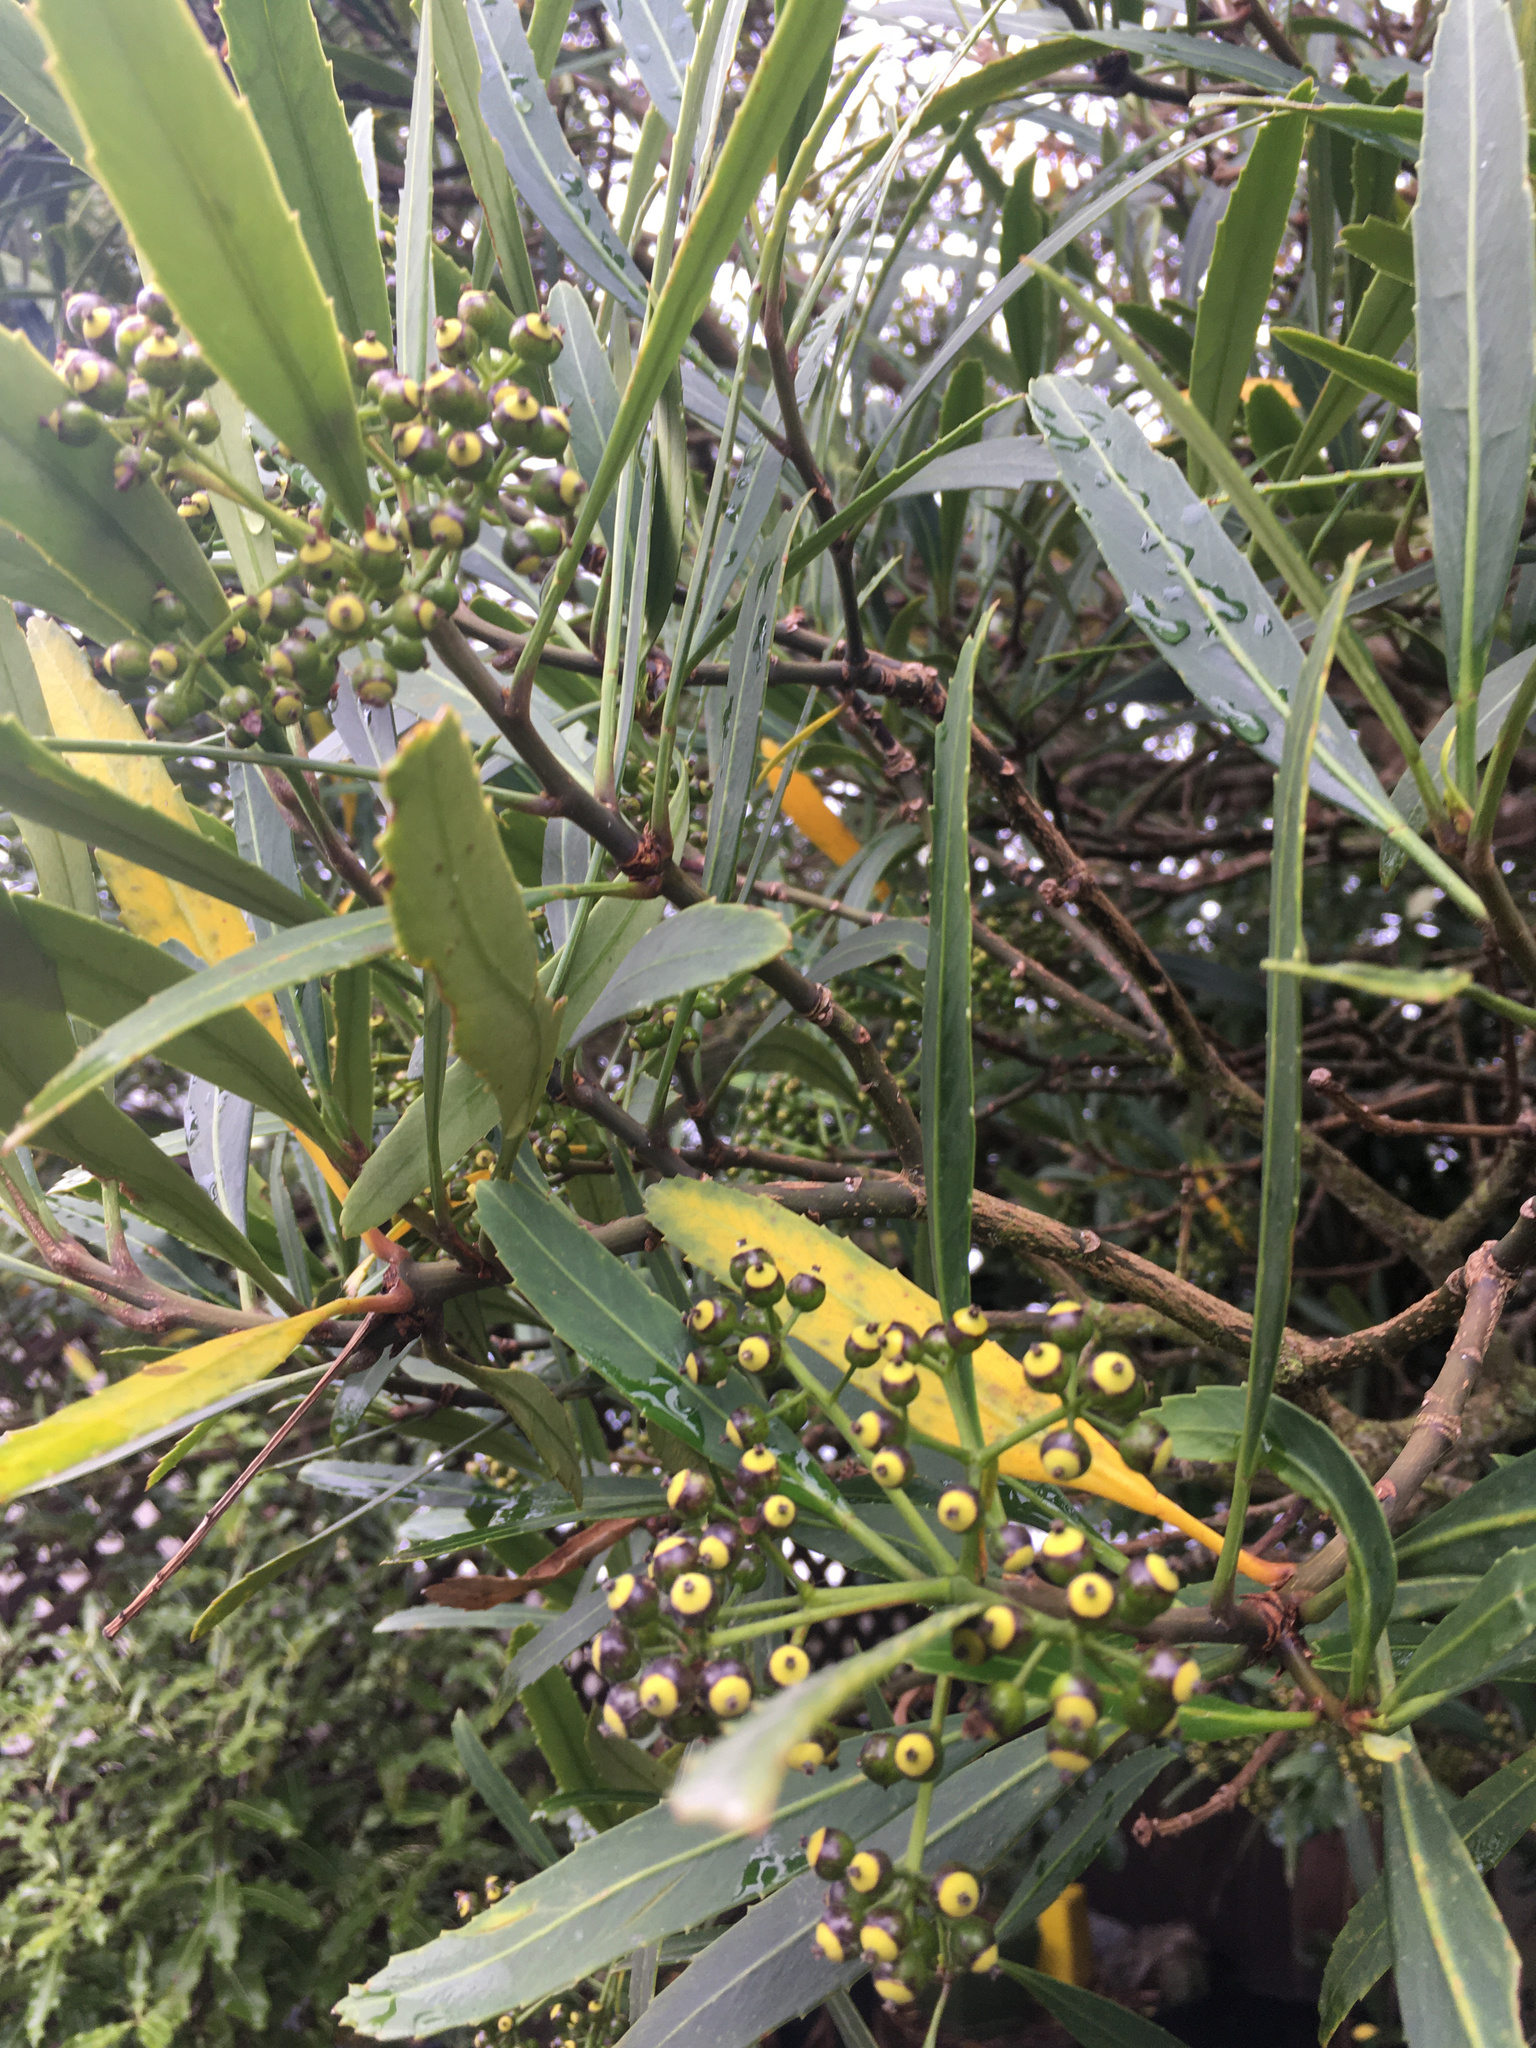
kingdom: Plantae
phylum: Tracheophyta
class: Magnoliopsida
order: Apiales
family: Araliaceae
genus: Pseudopanax
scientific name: Pseudopanax crassifolius
